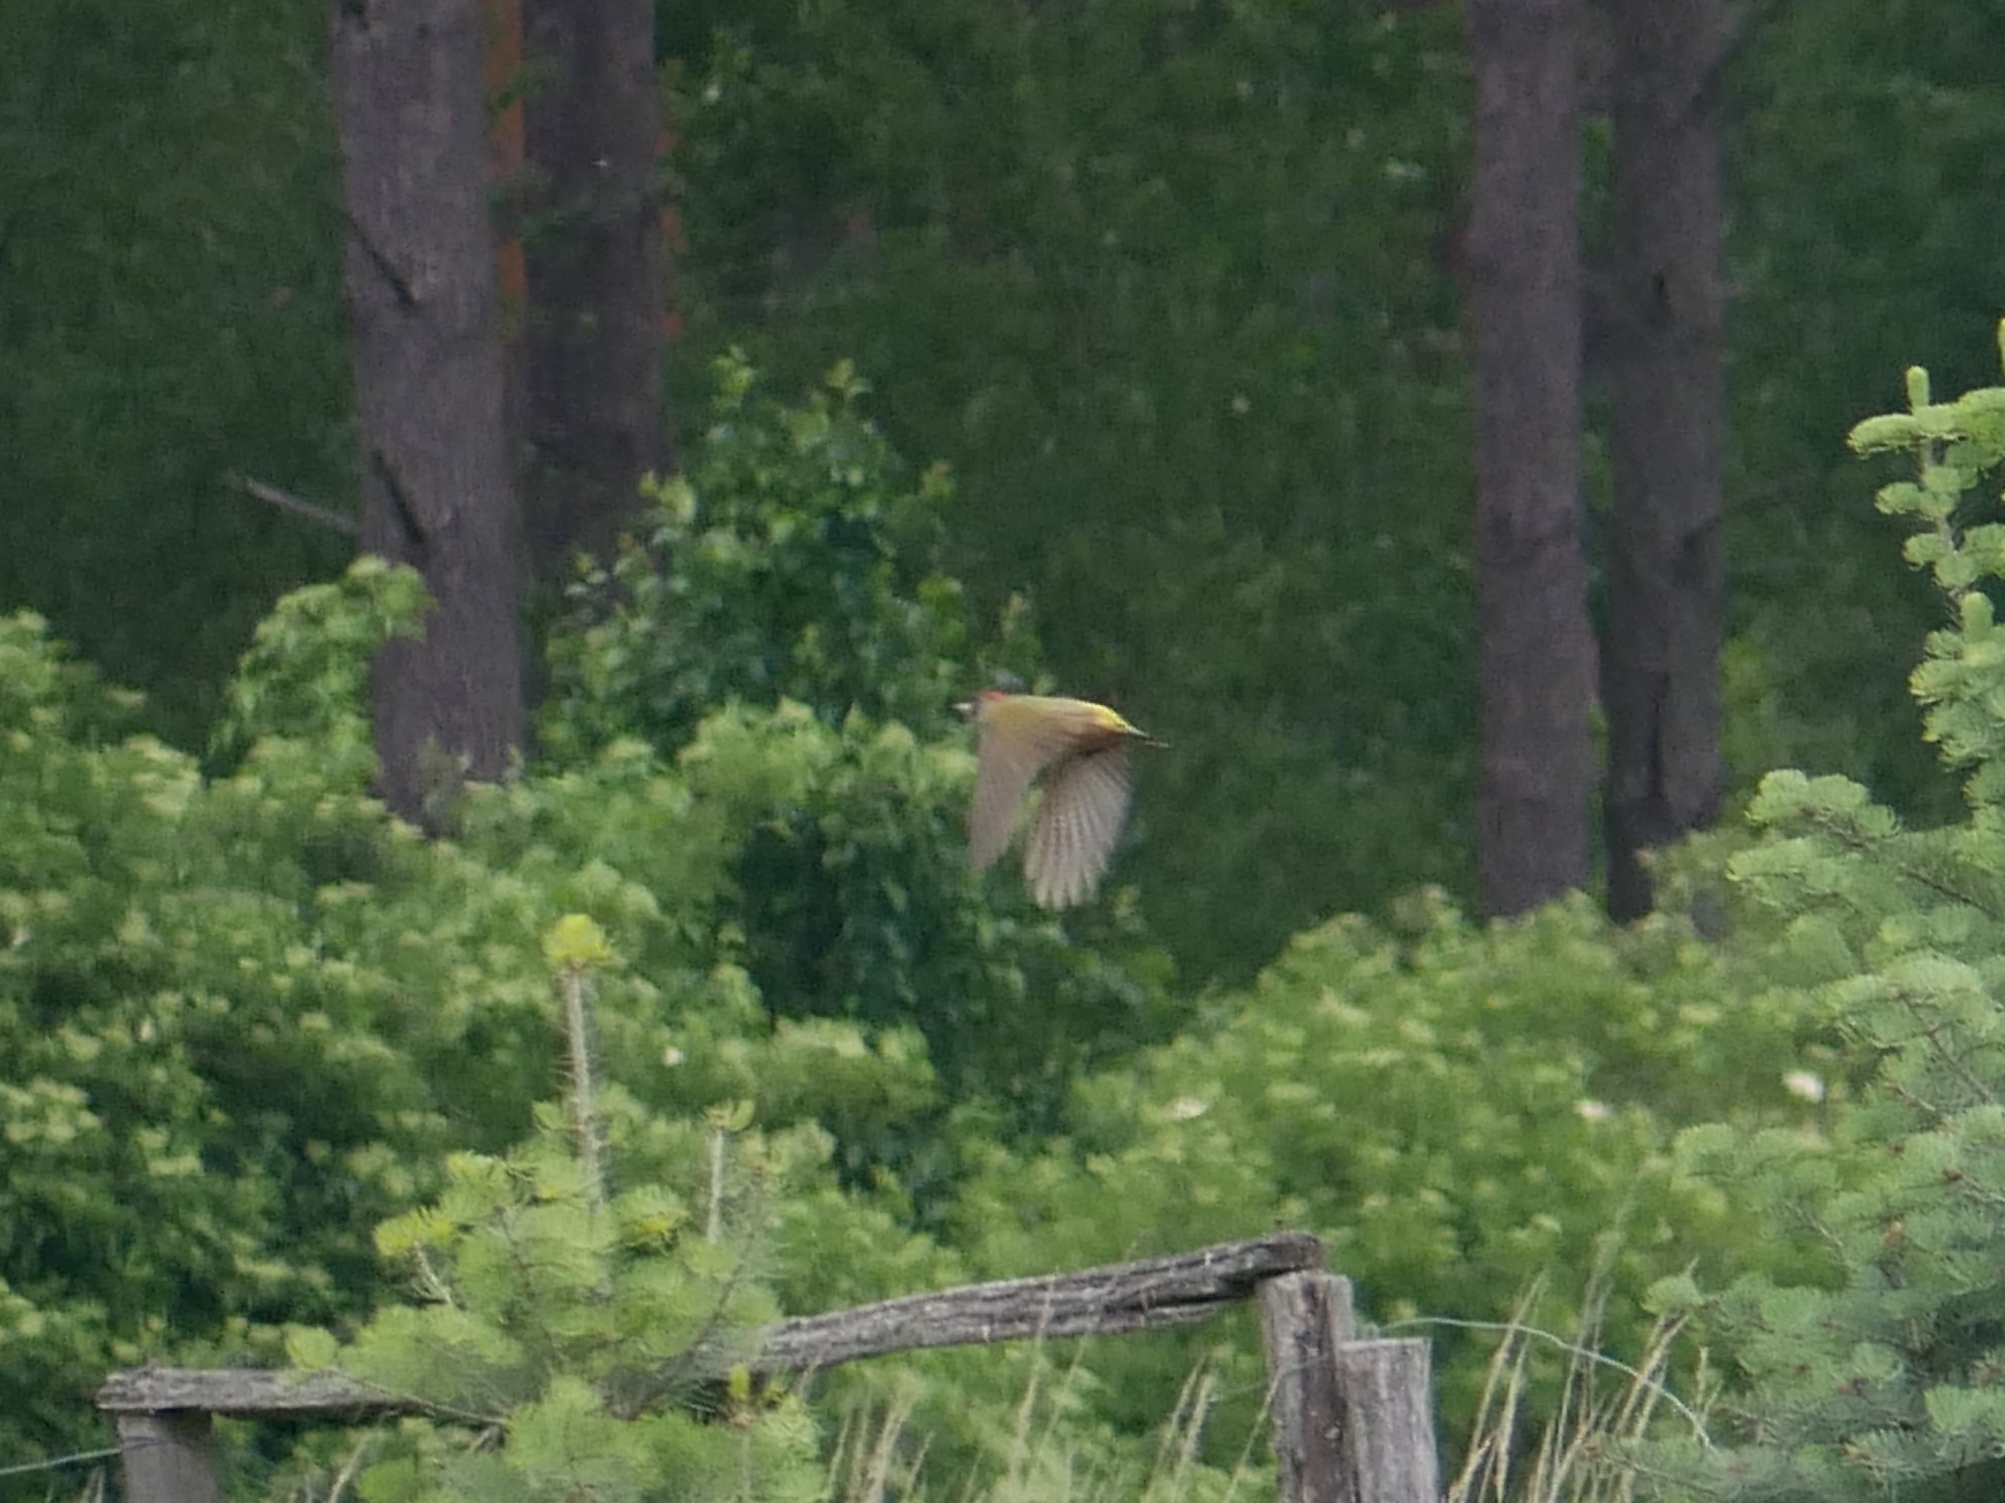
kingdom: Animalia
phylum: Chordata
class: Aves
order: Piciformes
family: Picidae
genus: Picus
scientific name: Picus viridis
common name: European green woodpecker
